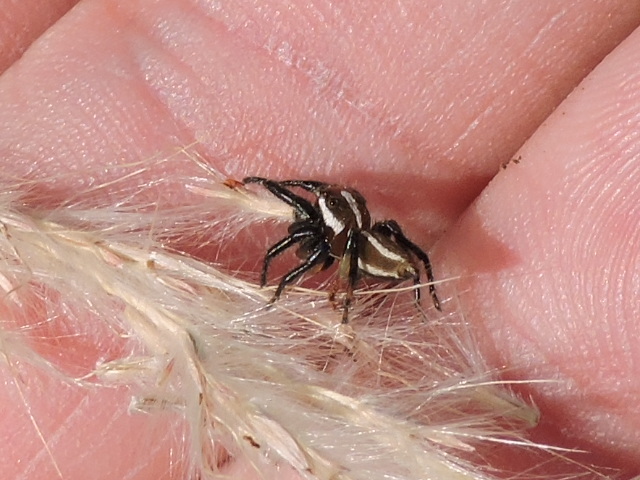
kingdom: Animalia
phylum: Arthropoda
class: Arachnida
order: Araneae
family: Salticidae
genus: Colonus
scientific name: Colonus puerperus
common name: Jumping spiders
